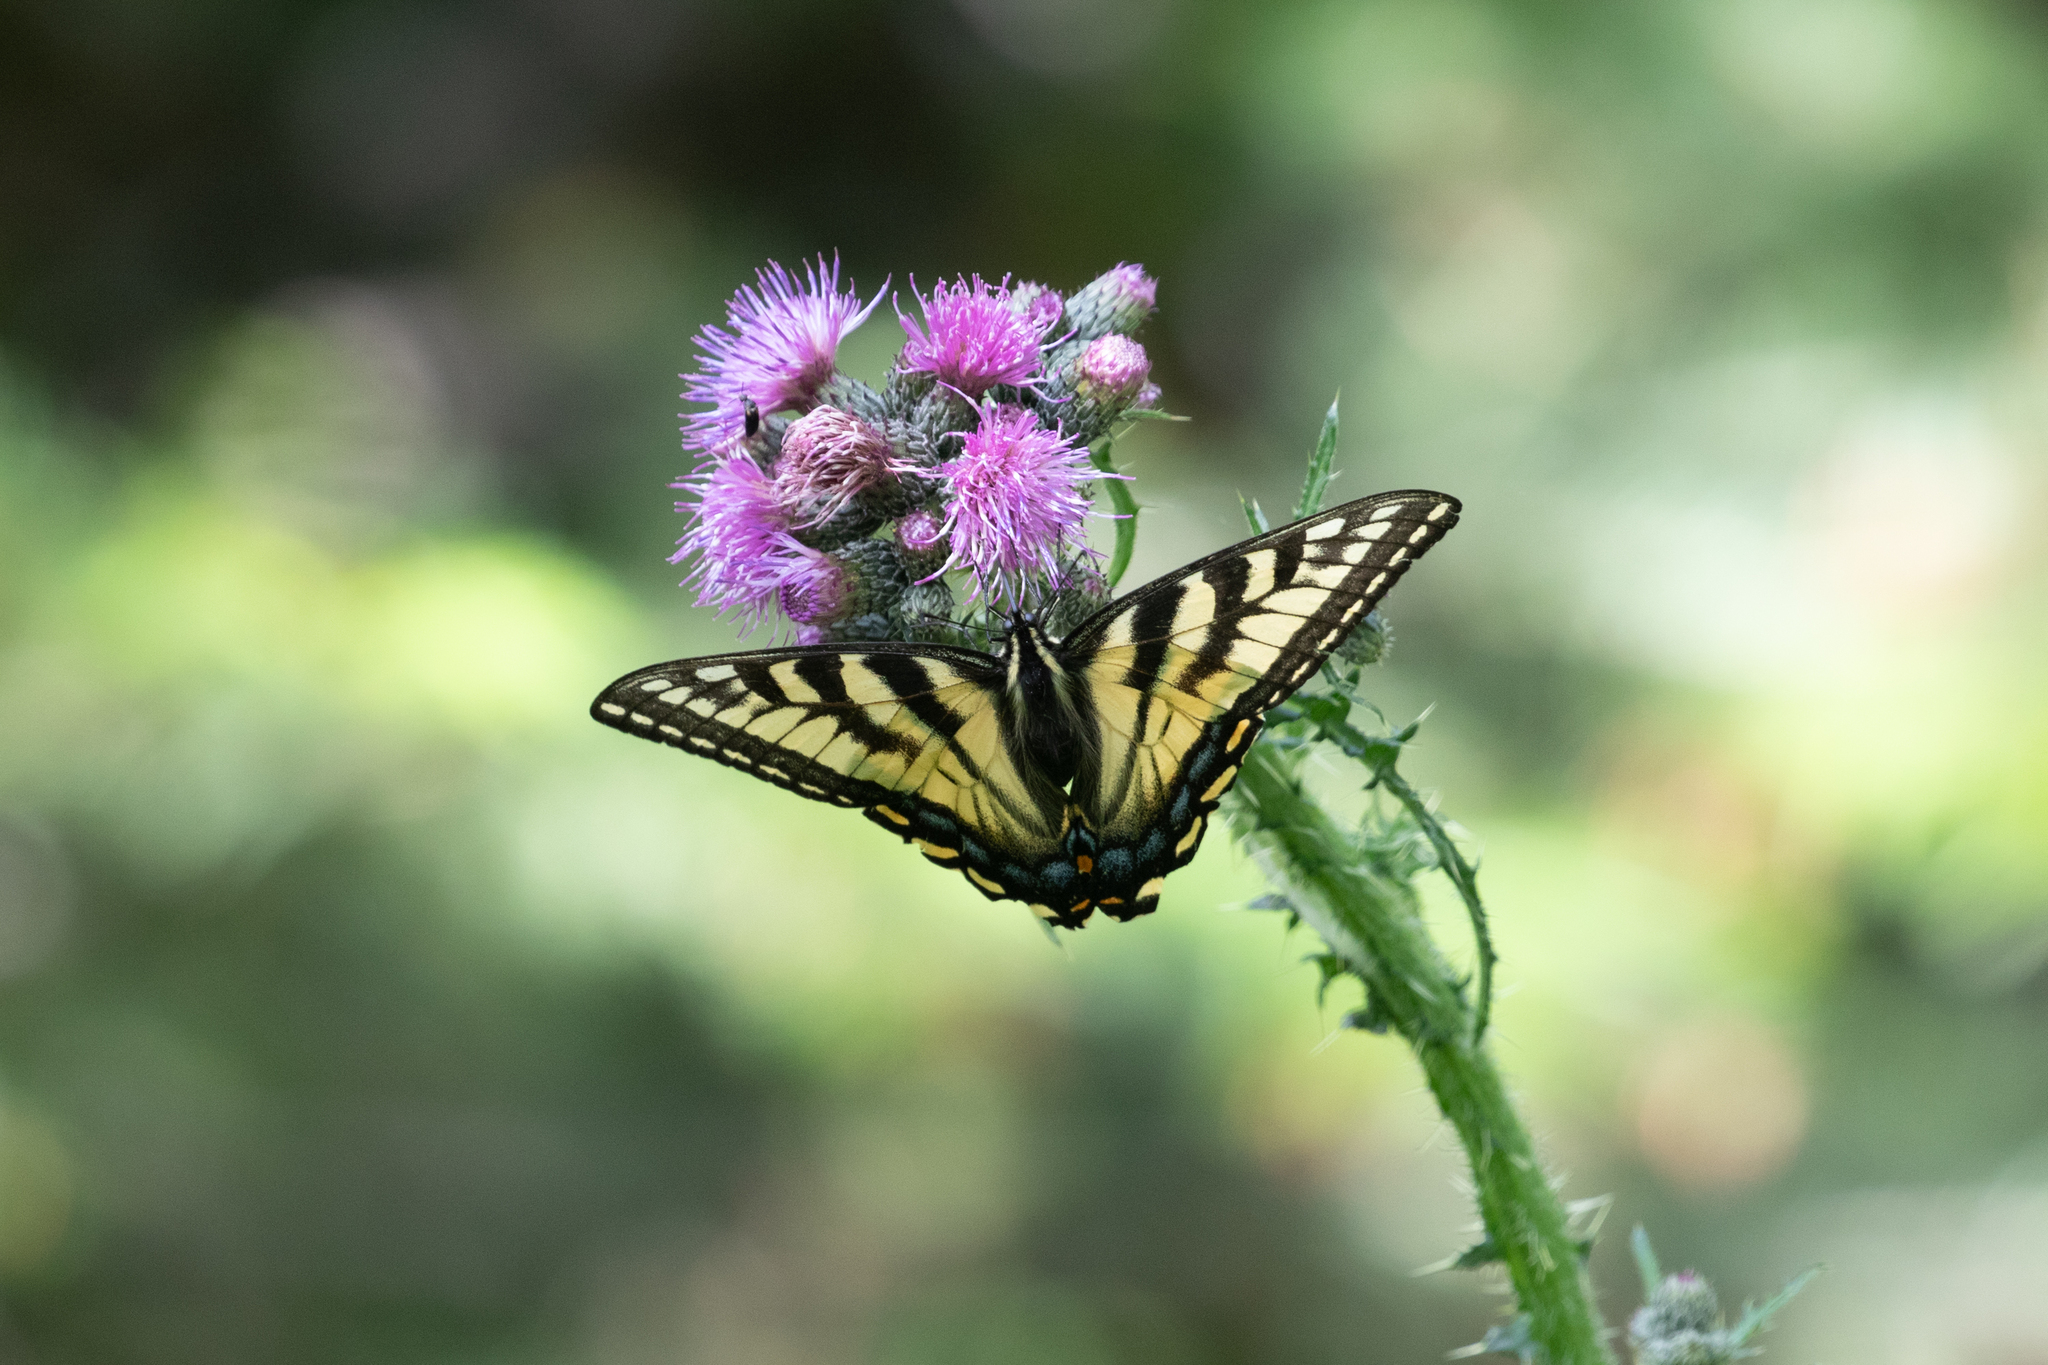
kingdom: Animalia
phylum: Arthropoda
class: Insecta
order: Lepidoptera
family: Papilionidae
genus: Papilio
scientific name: Papilio canadensis
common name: Canadian tiger swallowtail
